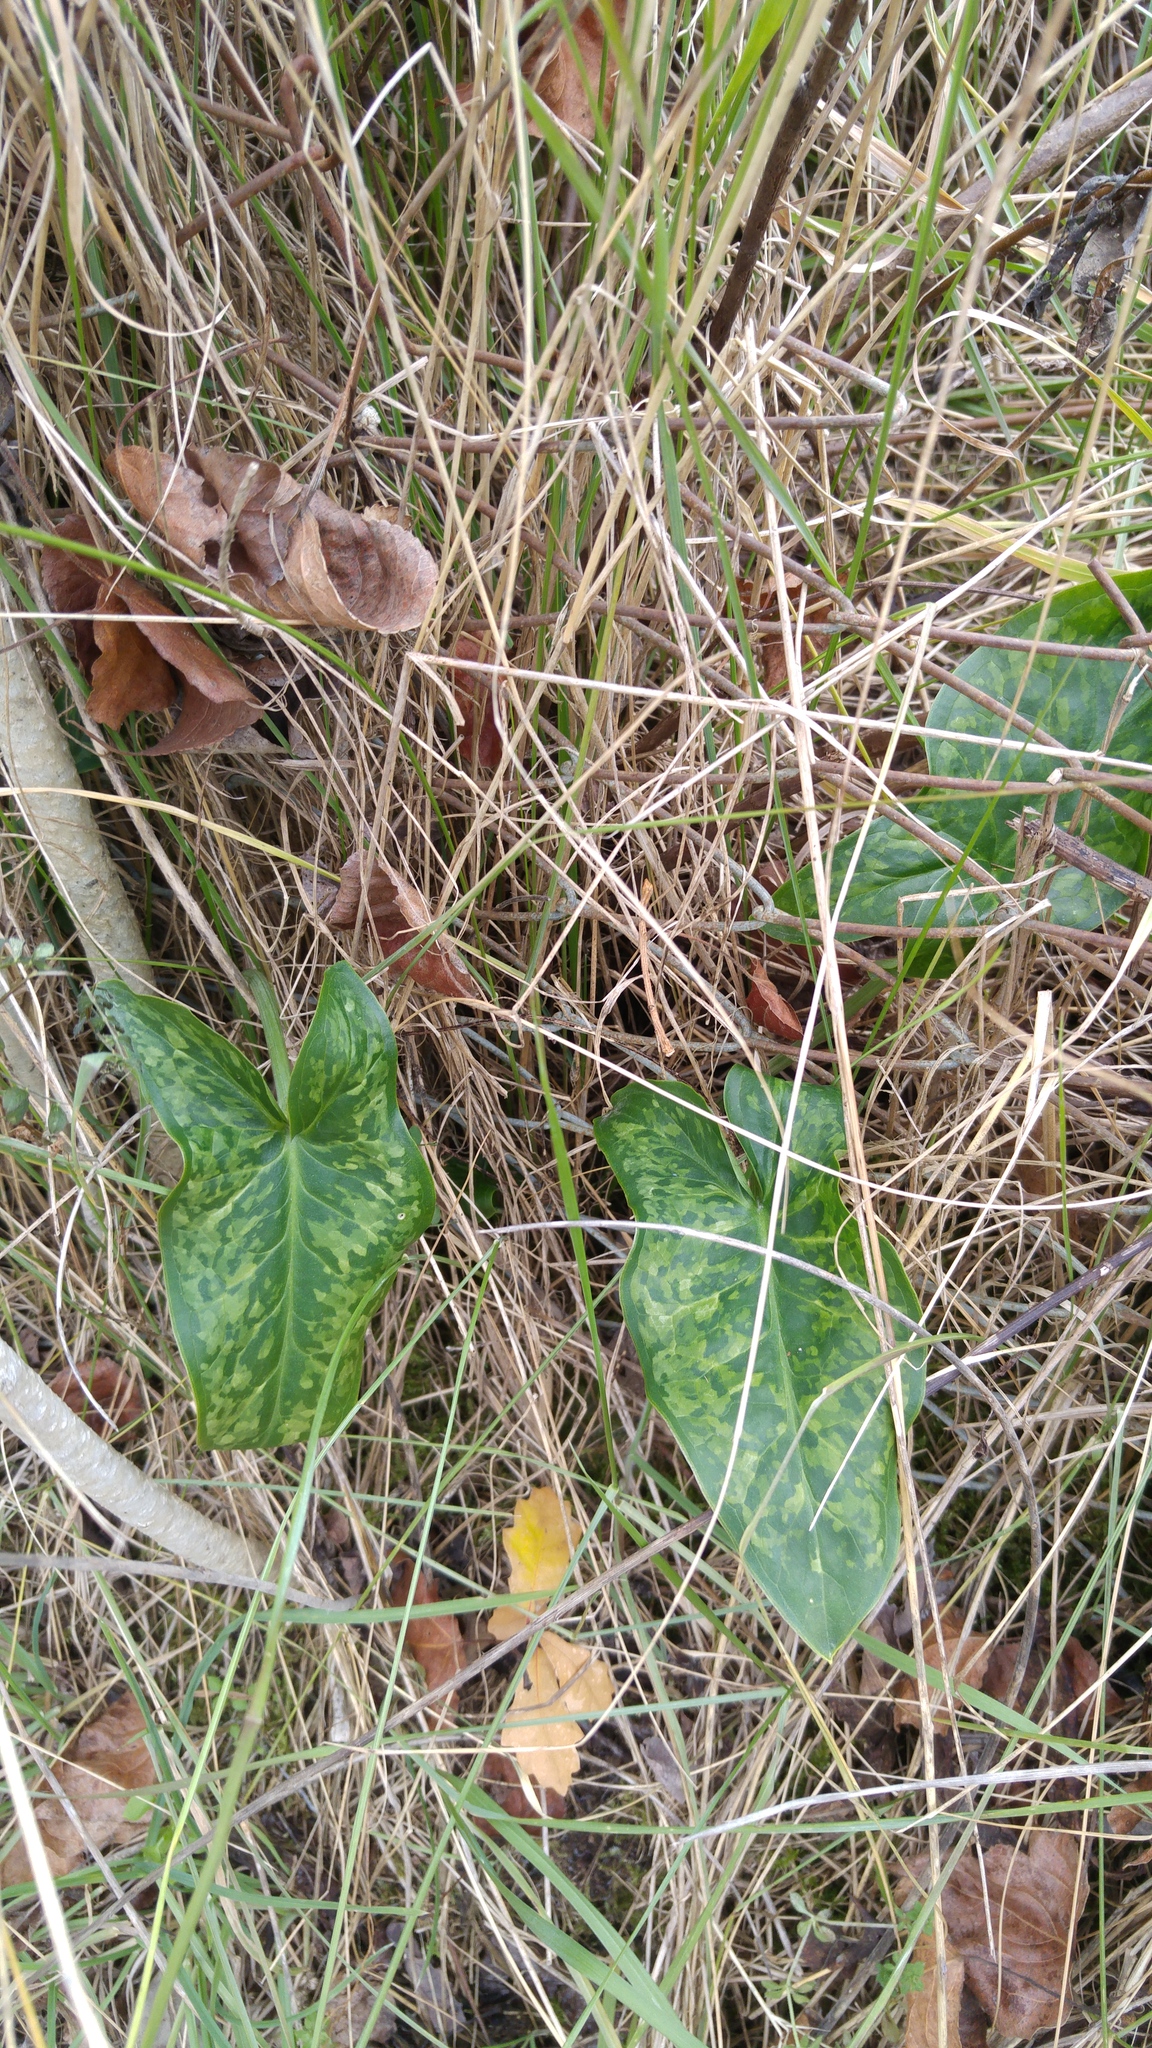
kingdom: Plantae
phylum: Tracheophyta
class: Liliopsida
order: Alismatales
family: Araceae
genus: Arum
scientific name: Arum italicum
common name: Italian lords-and-ladies
